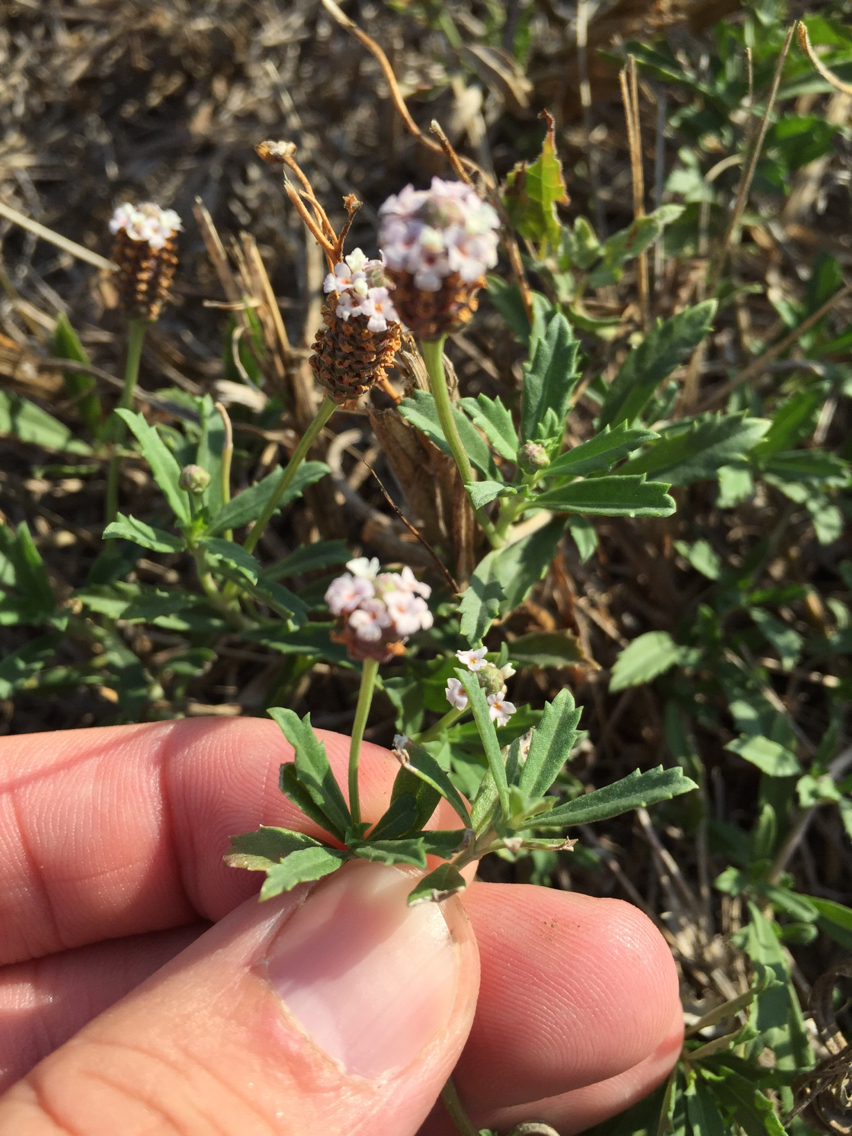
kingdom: Plantae
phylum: Tracheophyta
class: Magnoliopsida
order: Lamiales
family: Verbenaceae
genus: Phyla
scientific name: Phyla nodiflora
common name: Frogfruit
